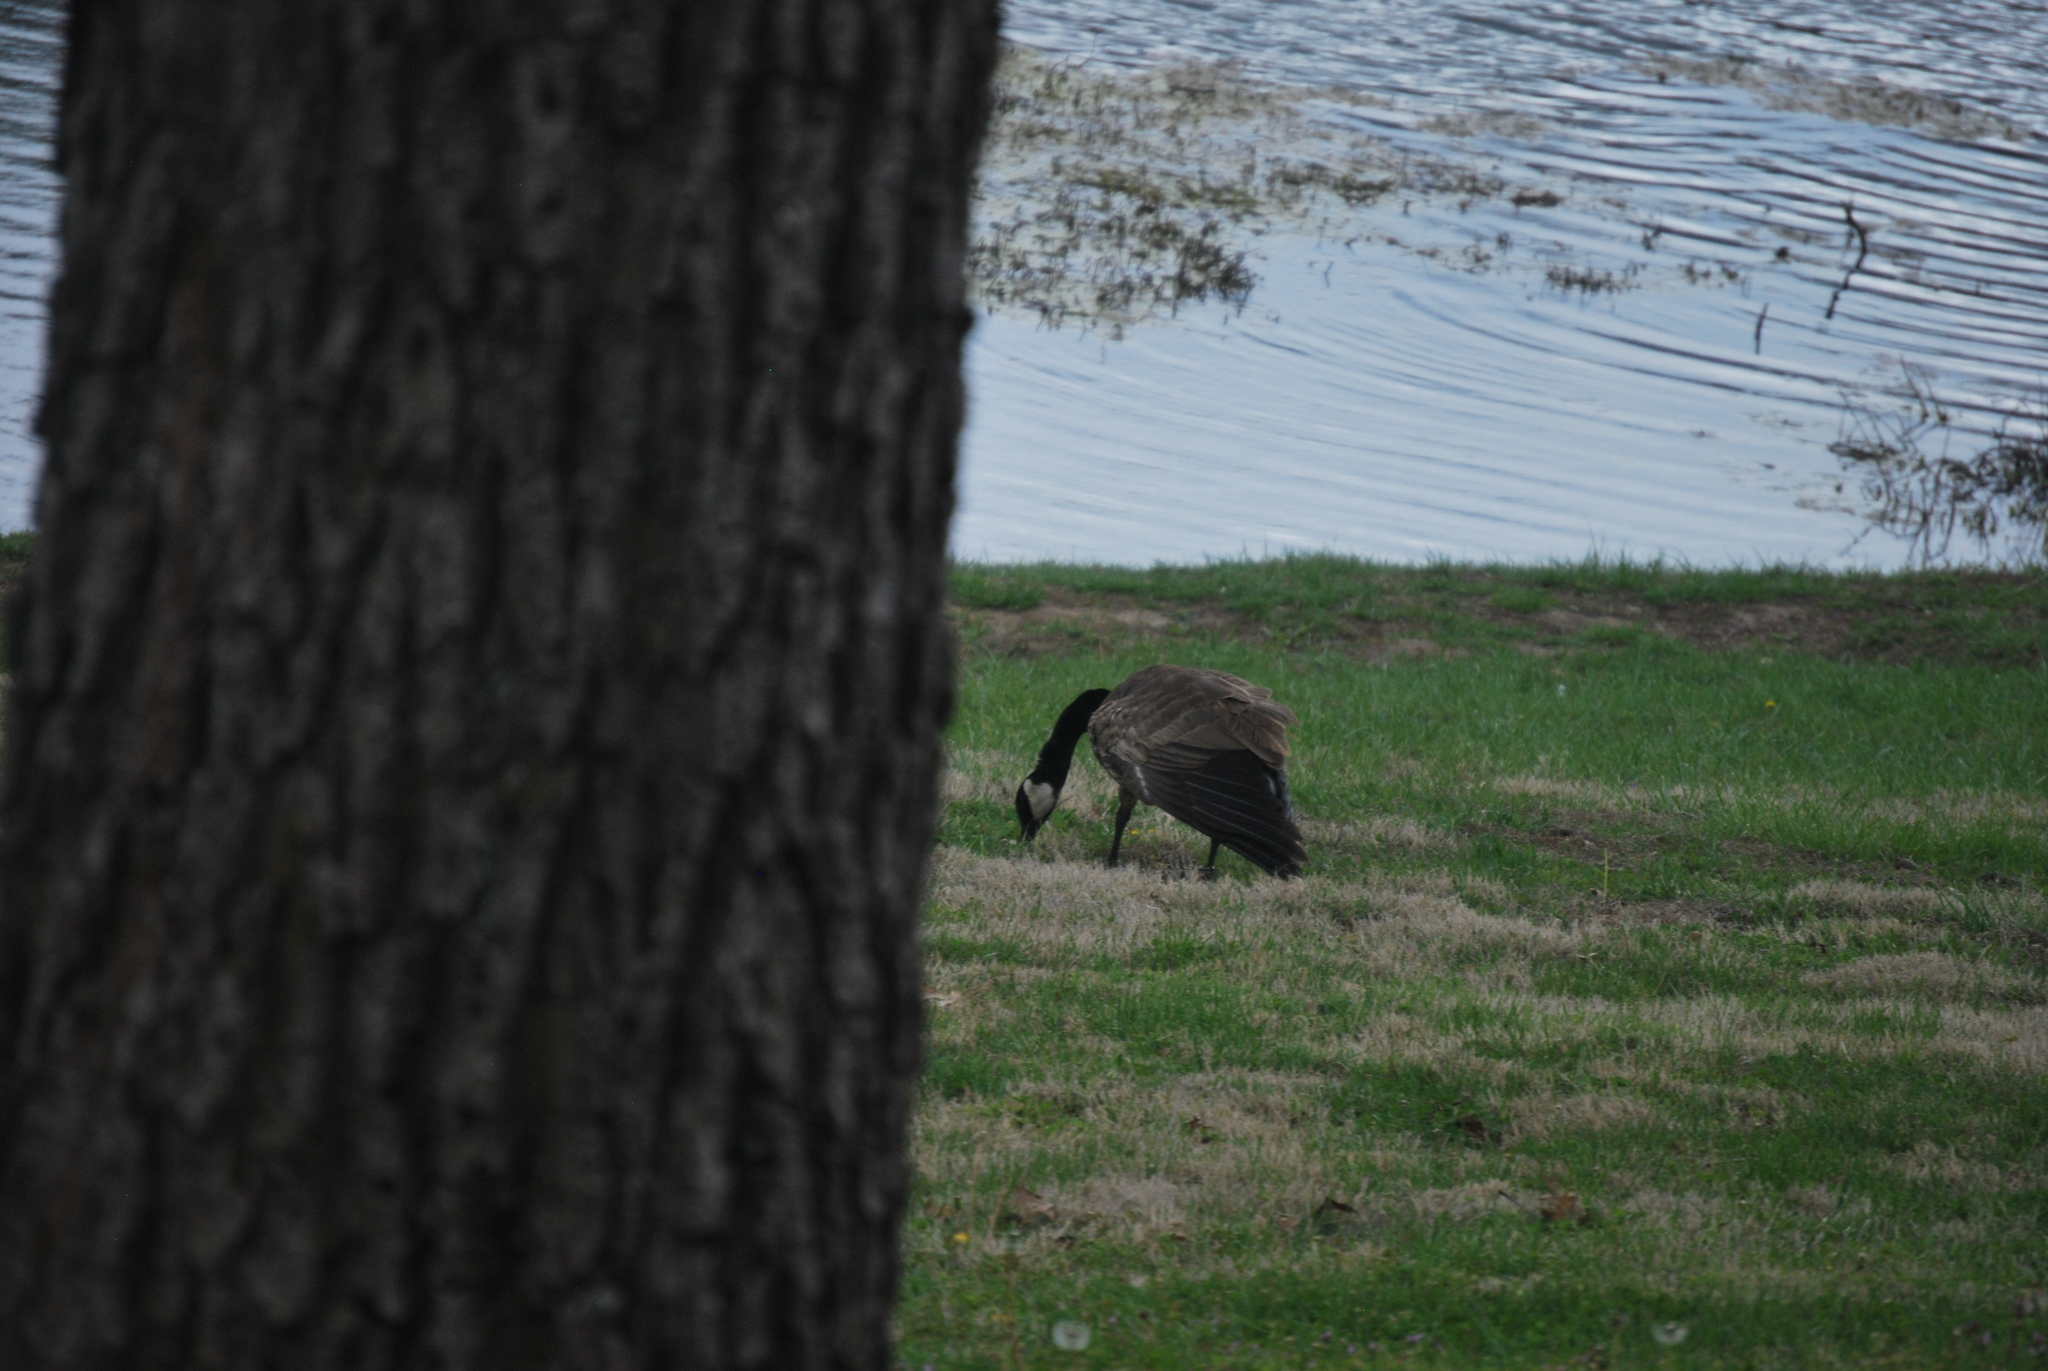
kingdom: Animalia
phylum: Chordata
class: Aves
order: Anseriformes
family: Anatidae
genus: Branta
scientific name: Branta canadensis
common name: Canada goose
